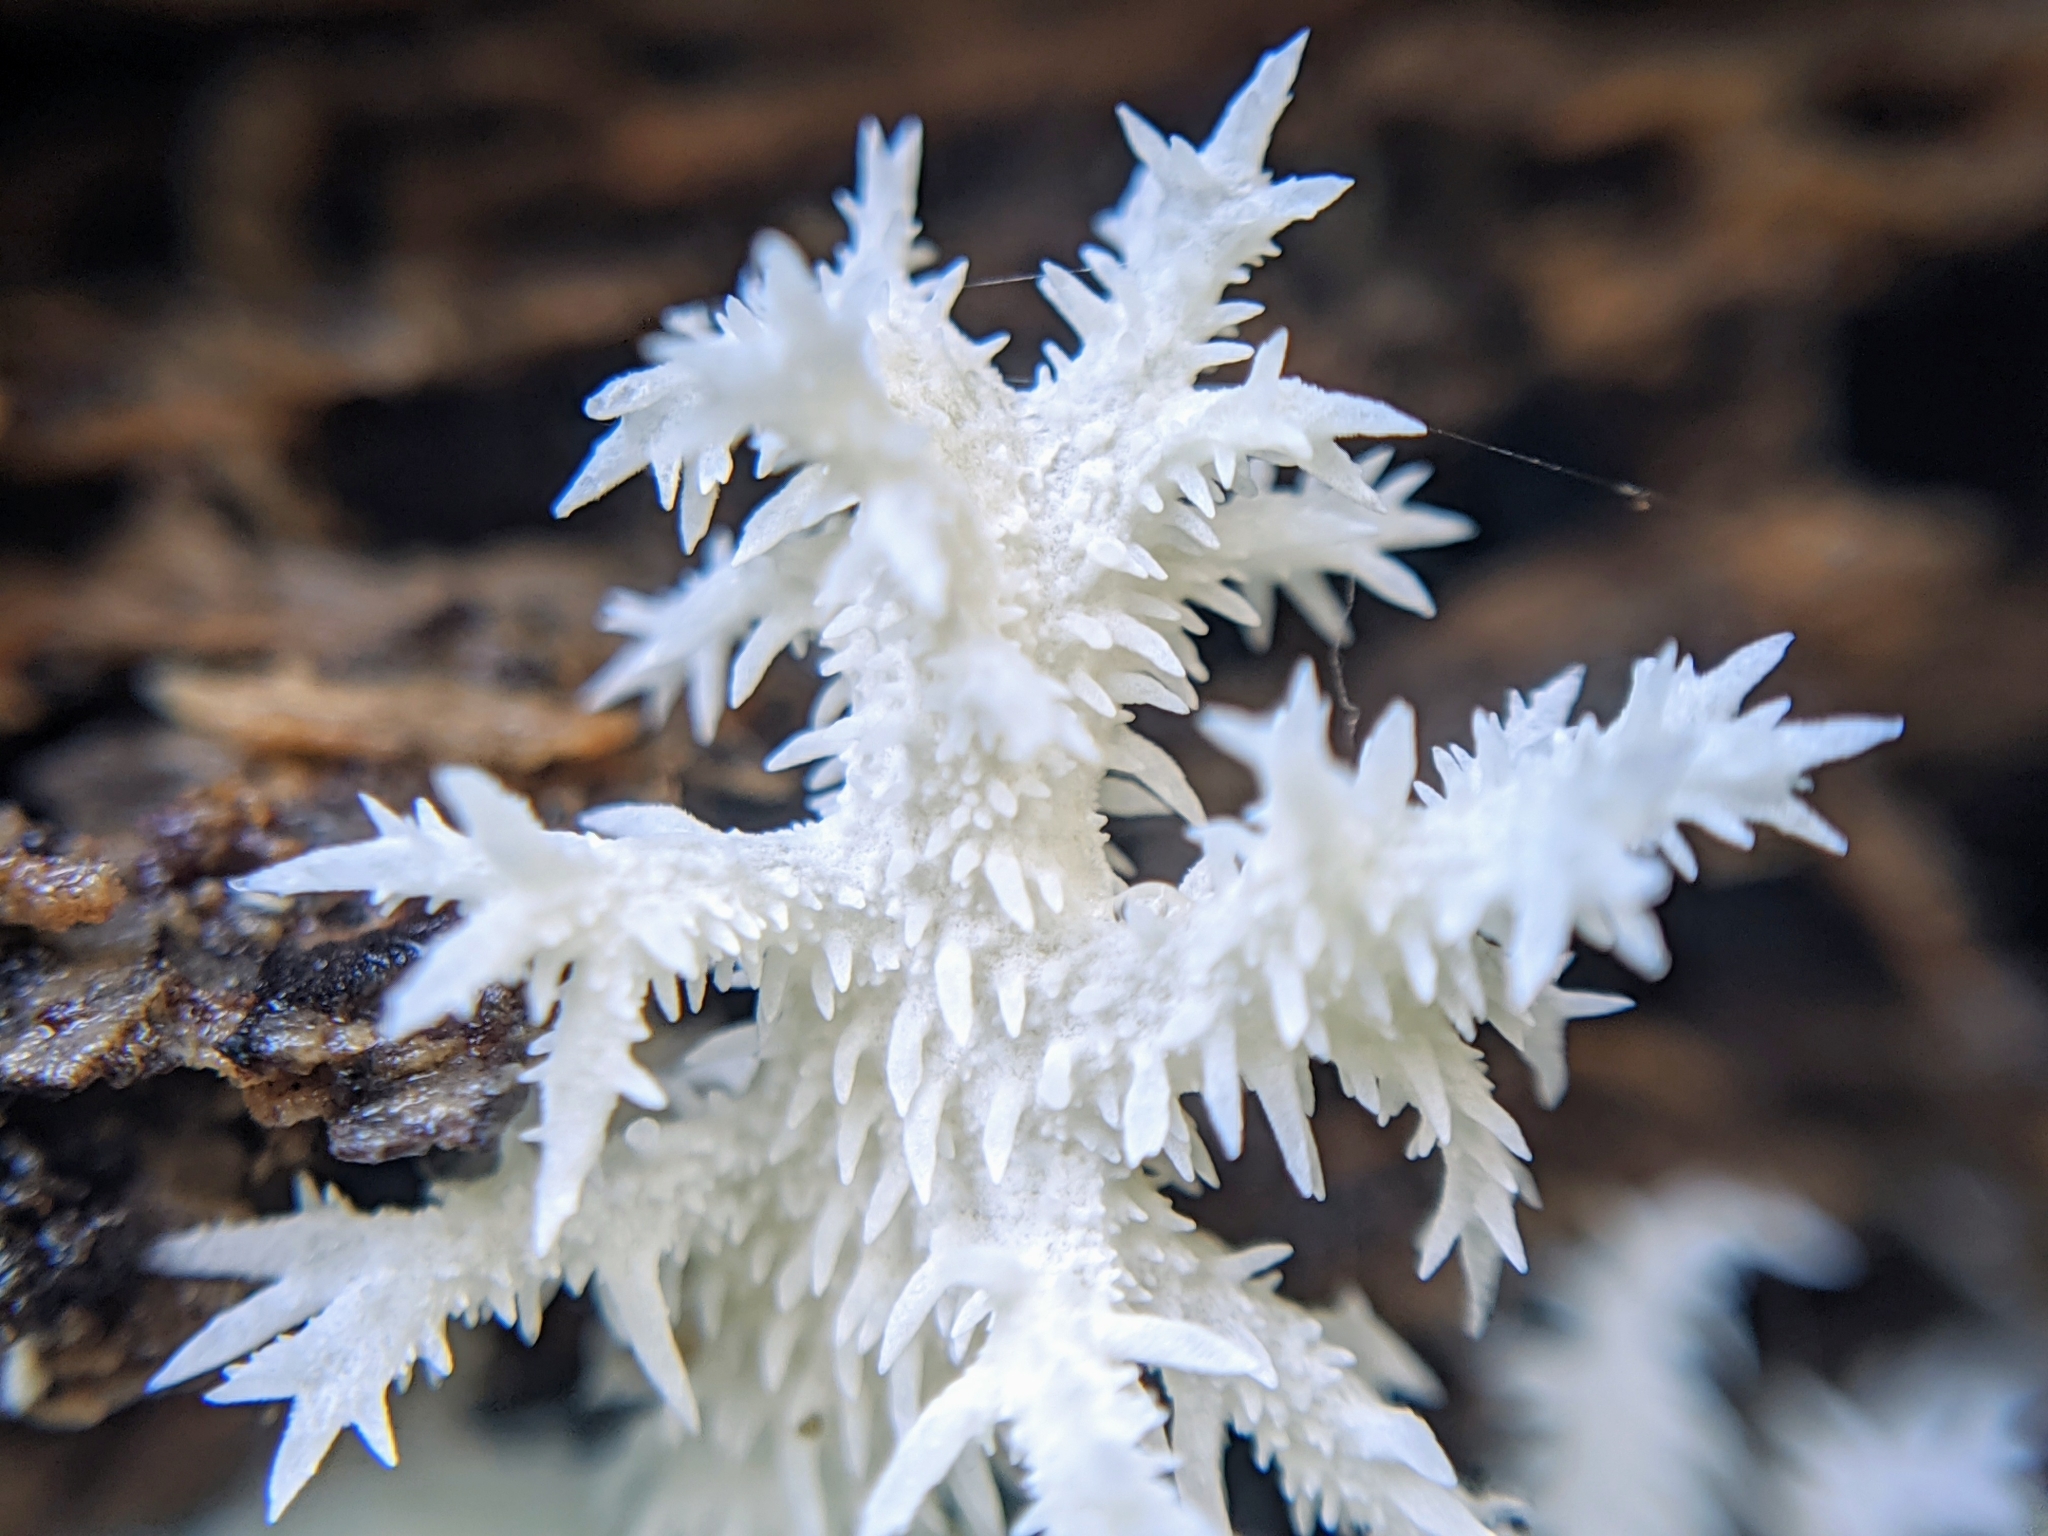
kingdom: Fungi
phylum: Basidiomycota
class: Agaricomycetes
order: Russulales
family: Hericiaceae
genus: Hericium
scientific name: Hericium coralloides
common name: Coral tooth
